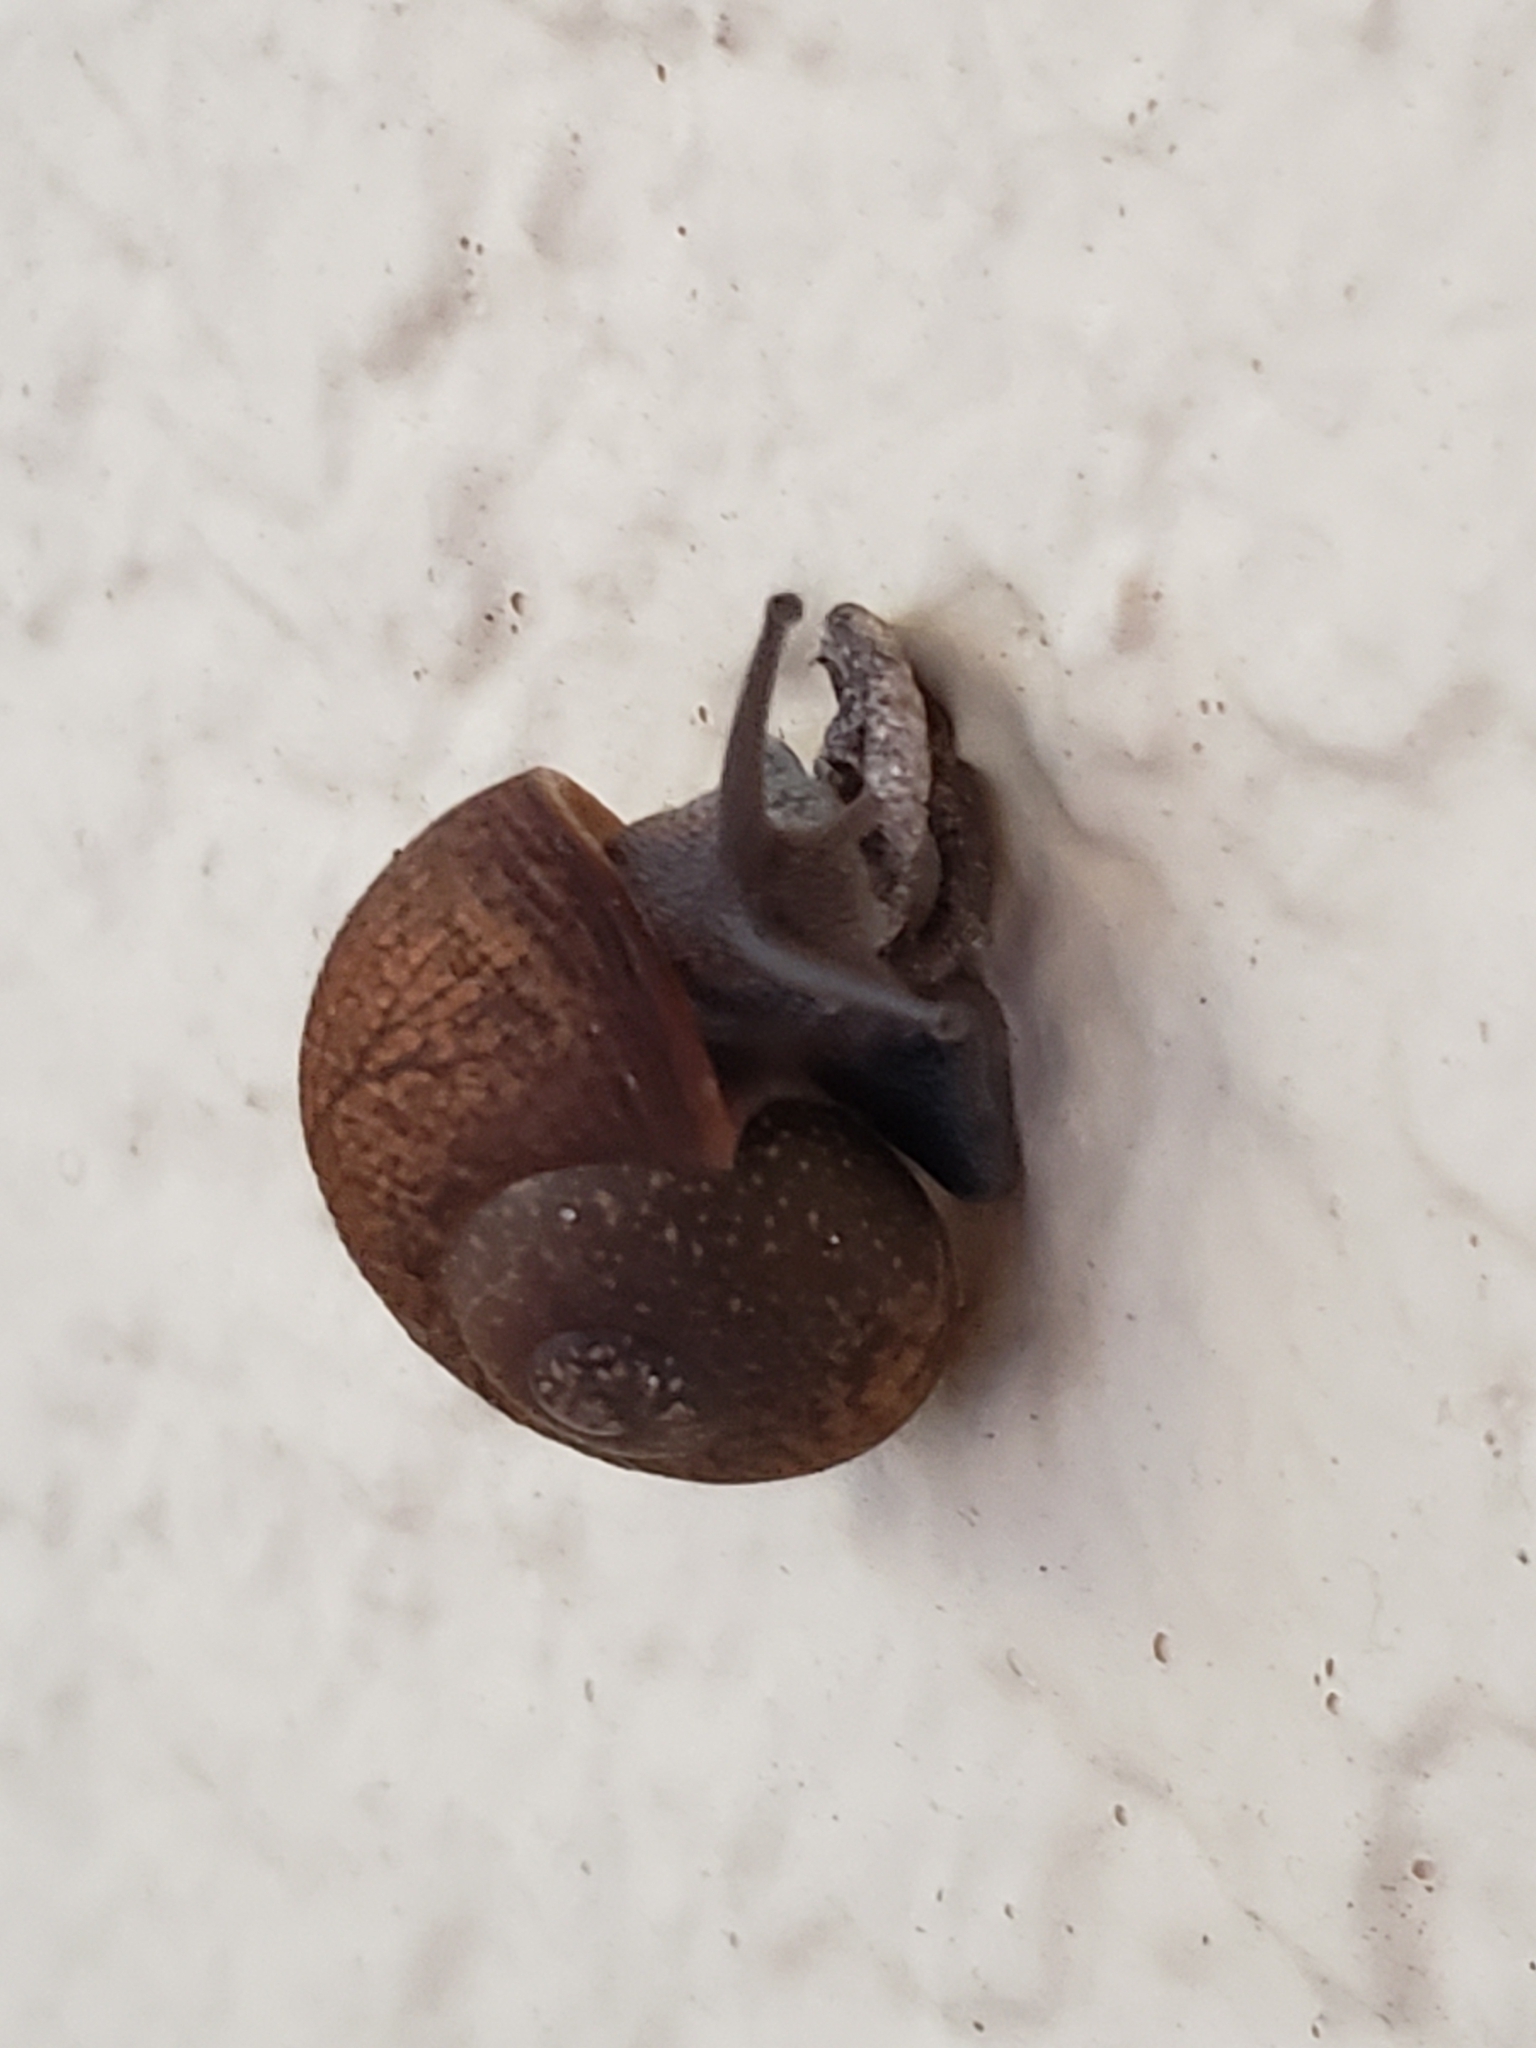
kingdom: Animalia
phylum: Mollusca
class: Gastropoda
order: Stylommatophora
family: Zachrysiidae
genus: Zachrysia
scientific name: Zachrysia provisoria
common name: Garden zachrysia
